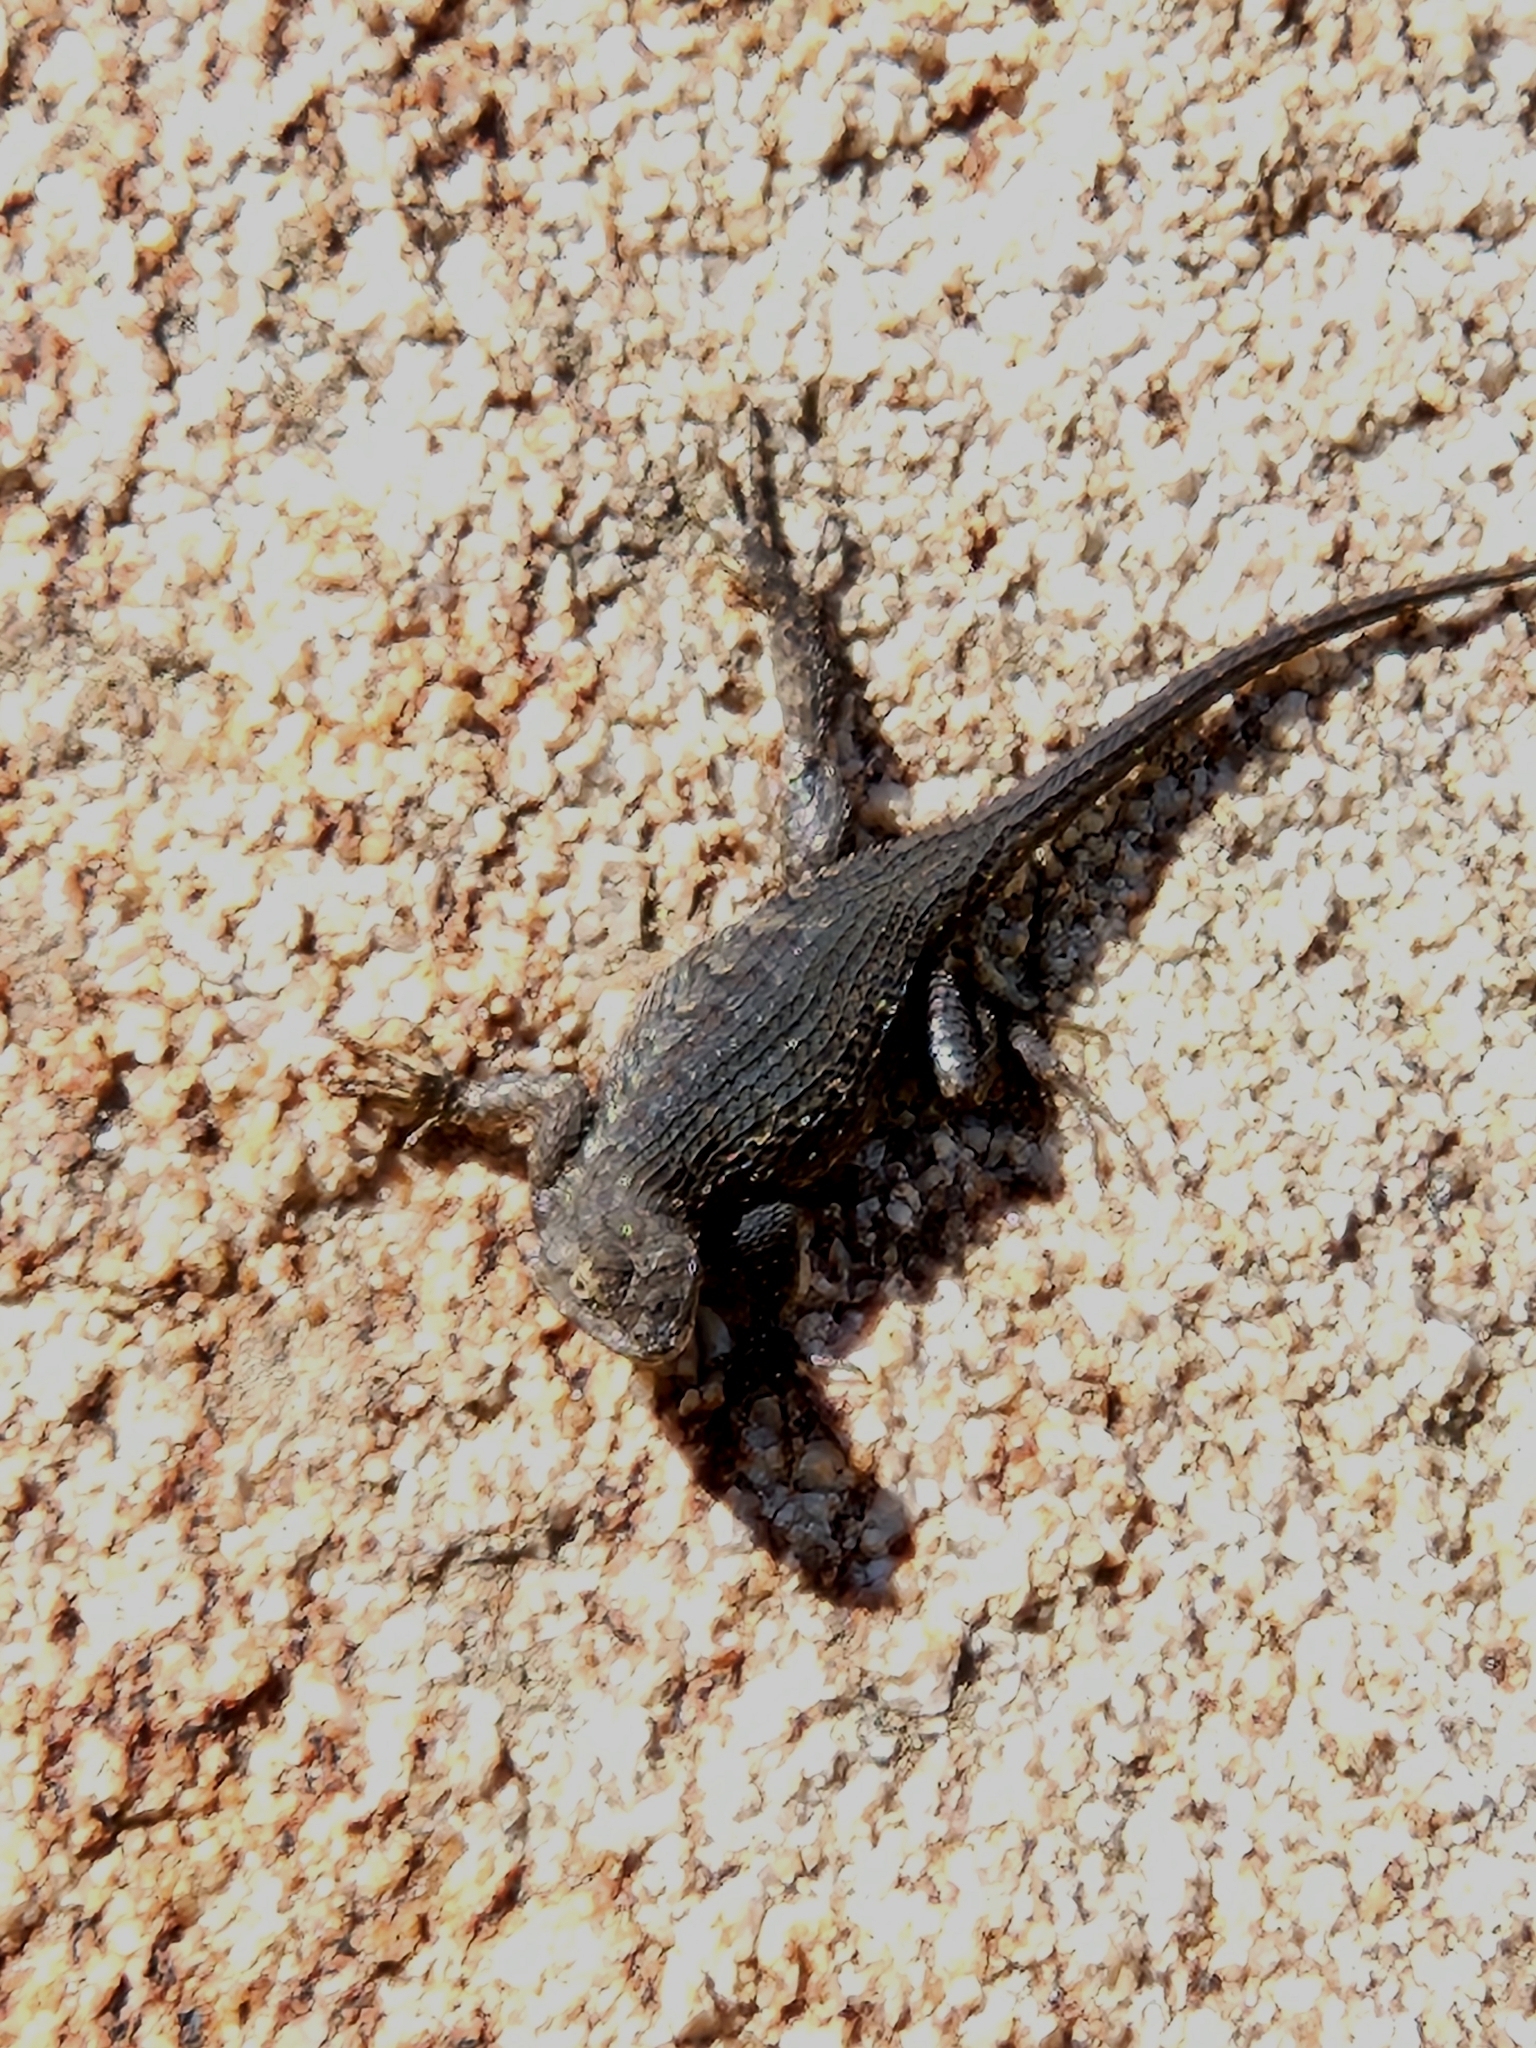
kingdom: Animalia
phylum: Chordata
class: Squamata
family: Phrynosomatidae
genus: Sceloporus
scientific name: Sceloporus occidentalis
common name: Western fence lizard
